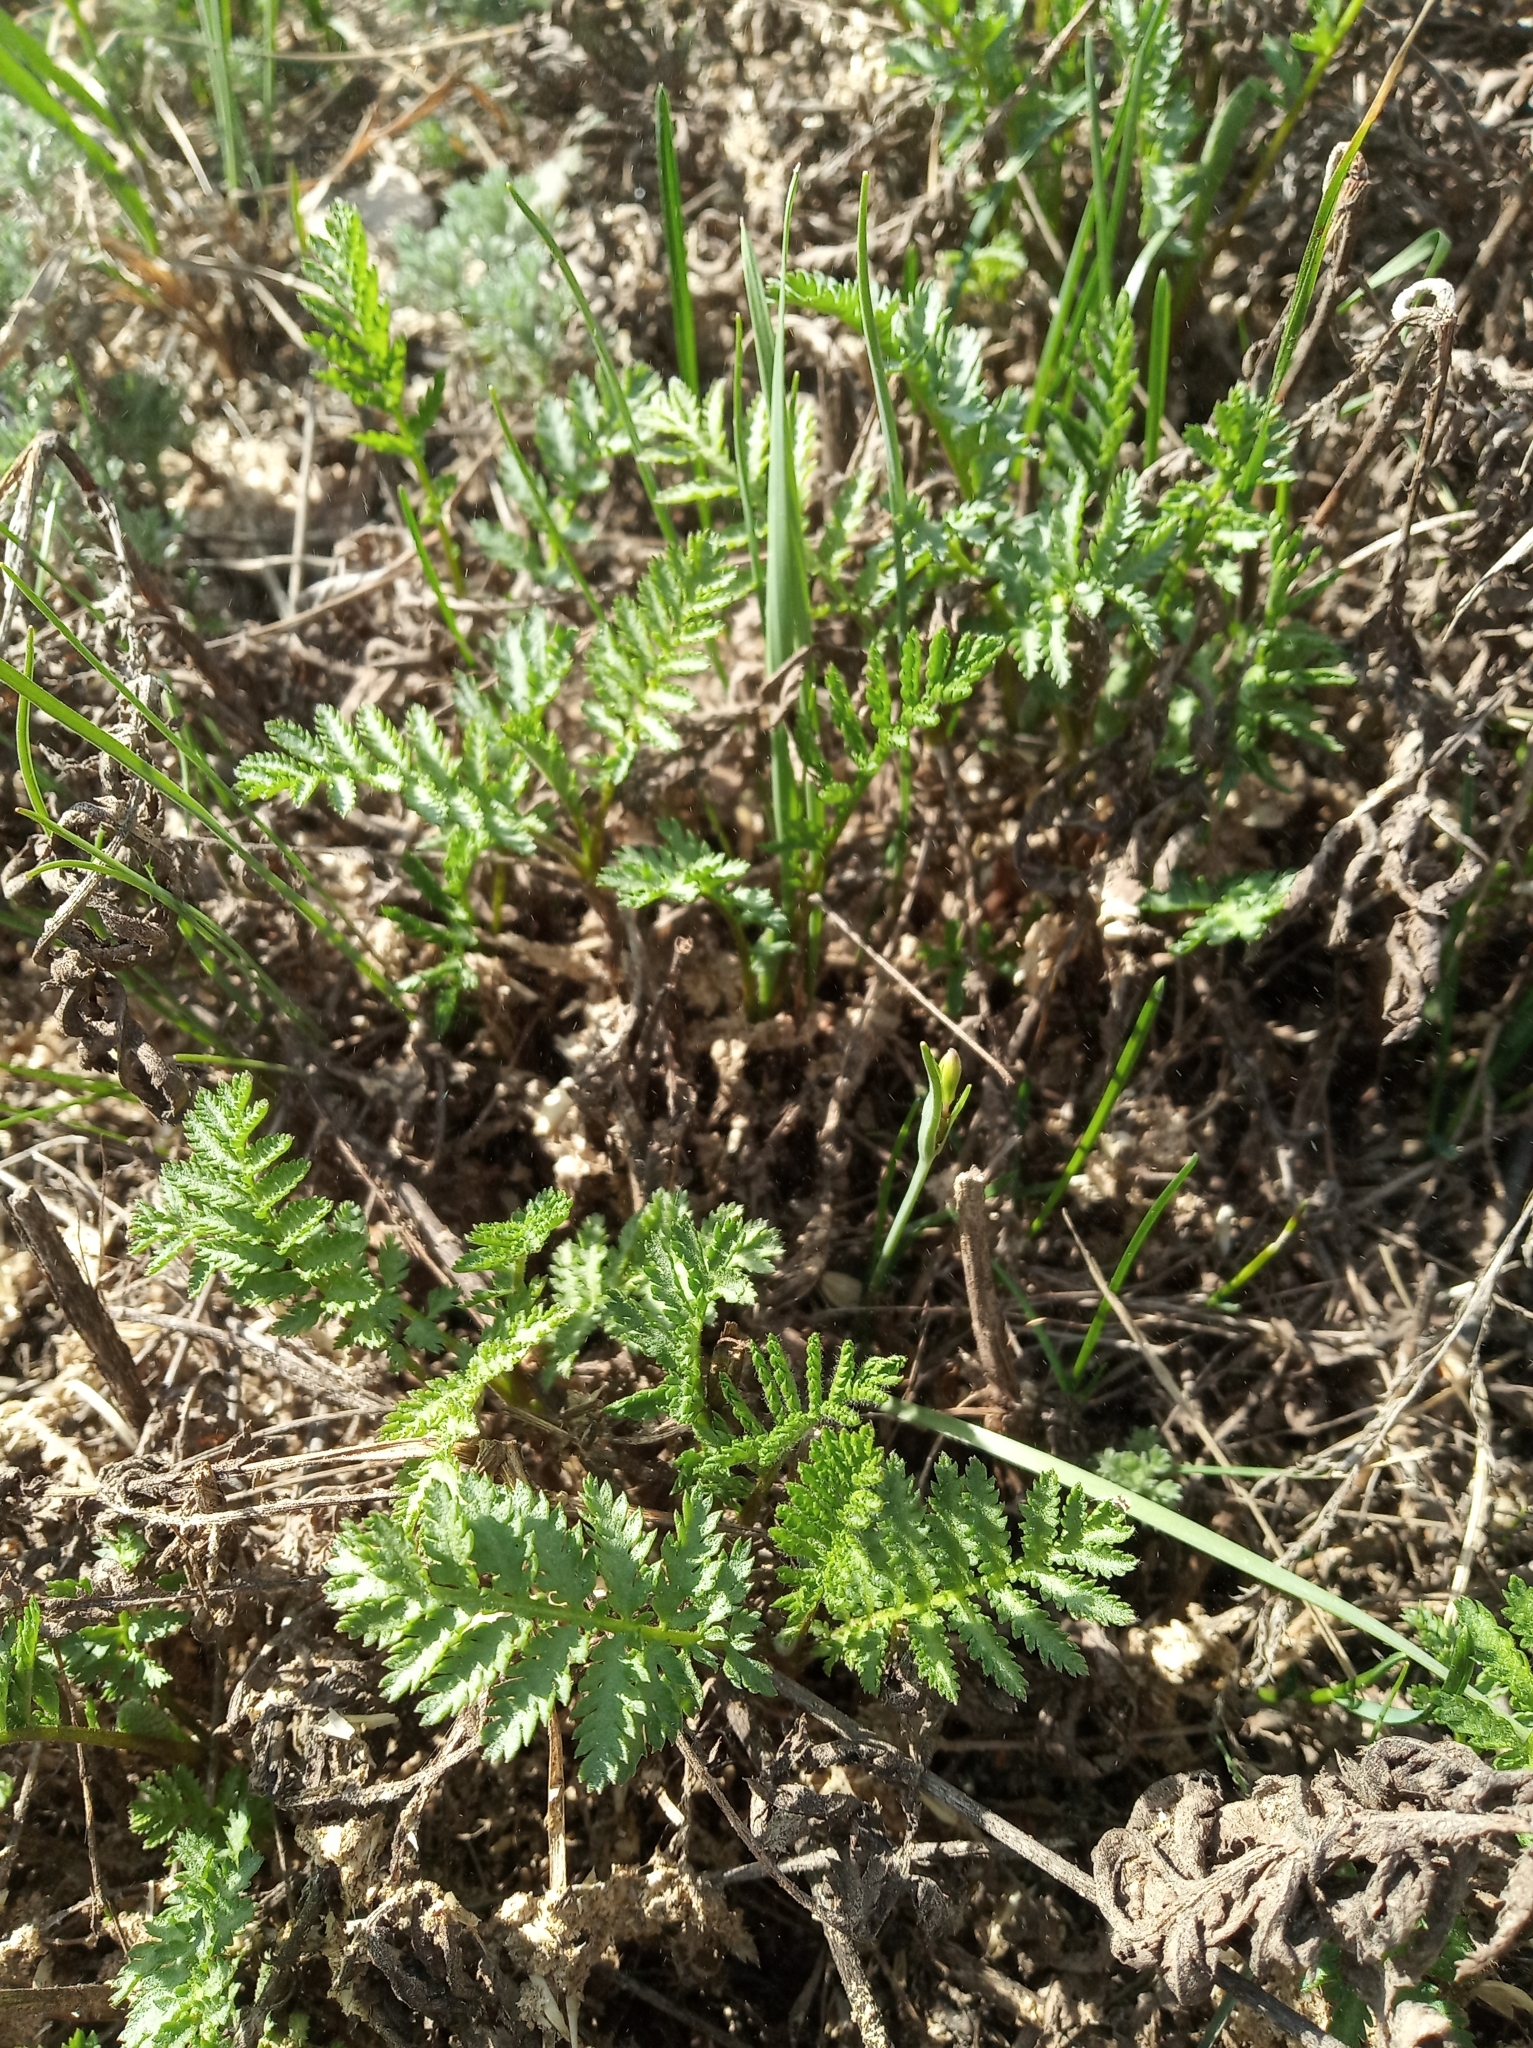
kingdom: Plantae
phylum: Tracheophyta
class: Magnoliopsida
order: Asterales
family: Asteraceae
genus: Tanacetum
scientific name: Tanacetum vulgare
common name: Common tansy
